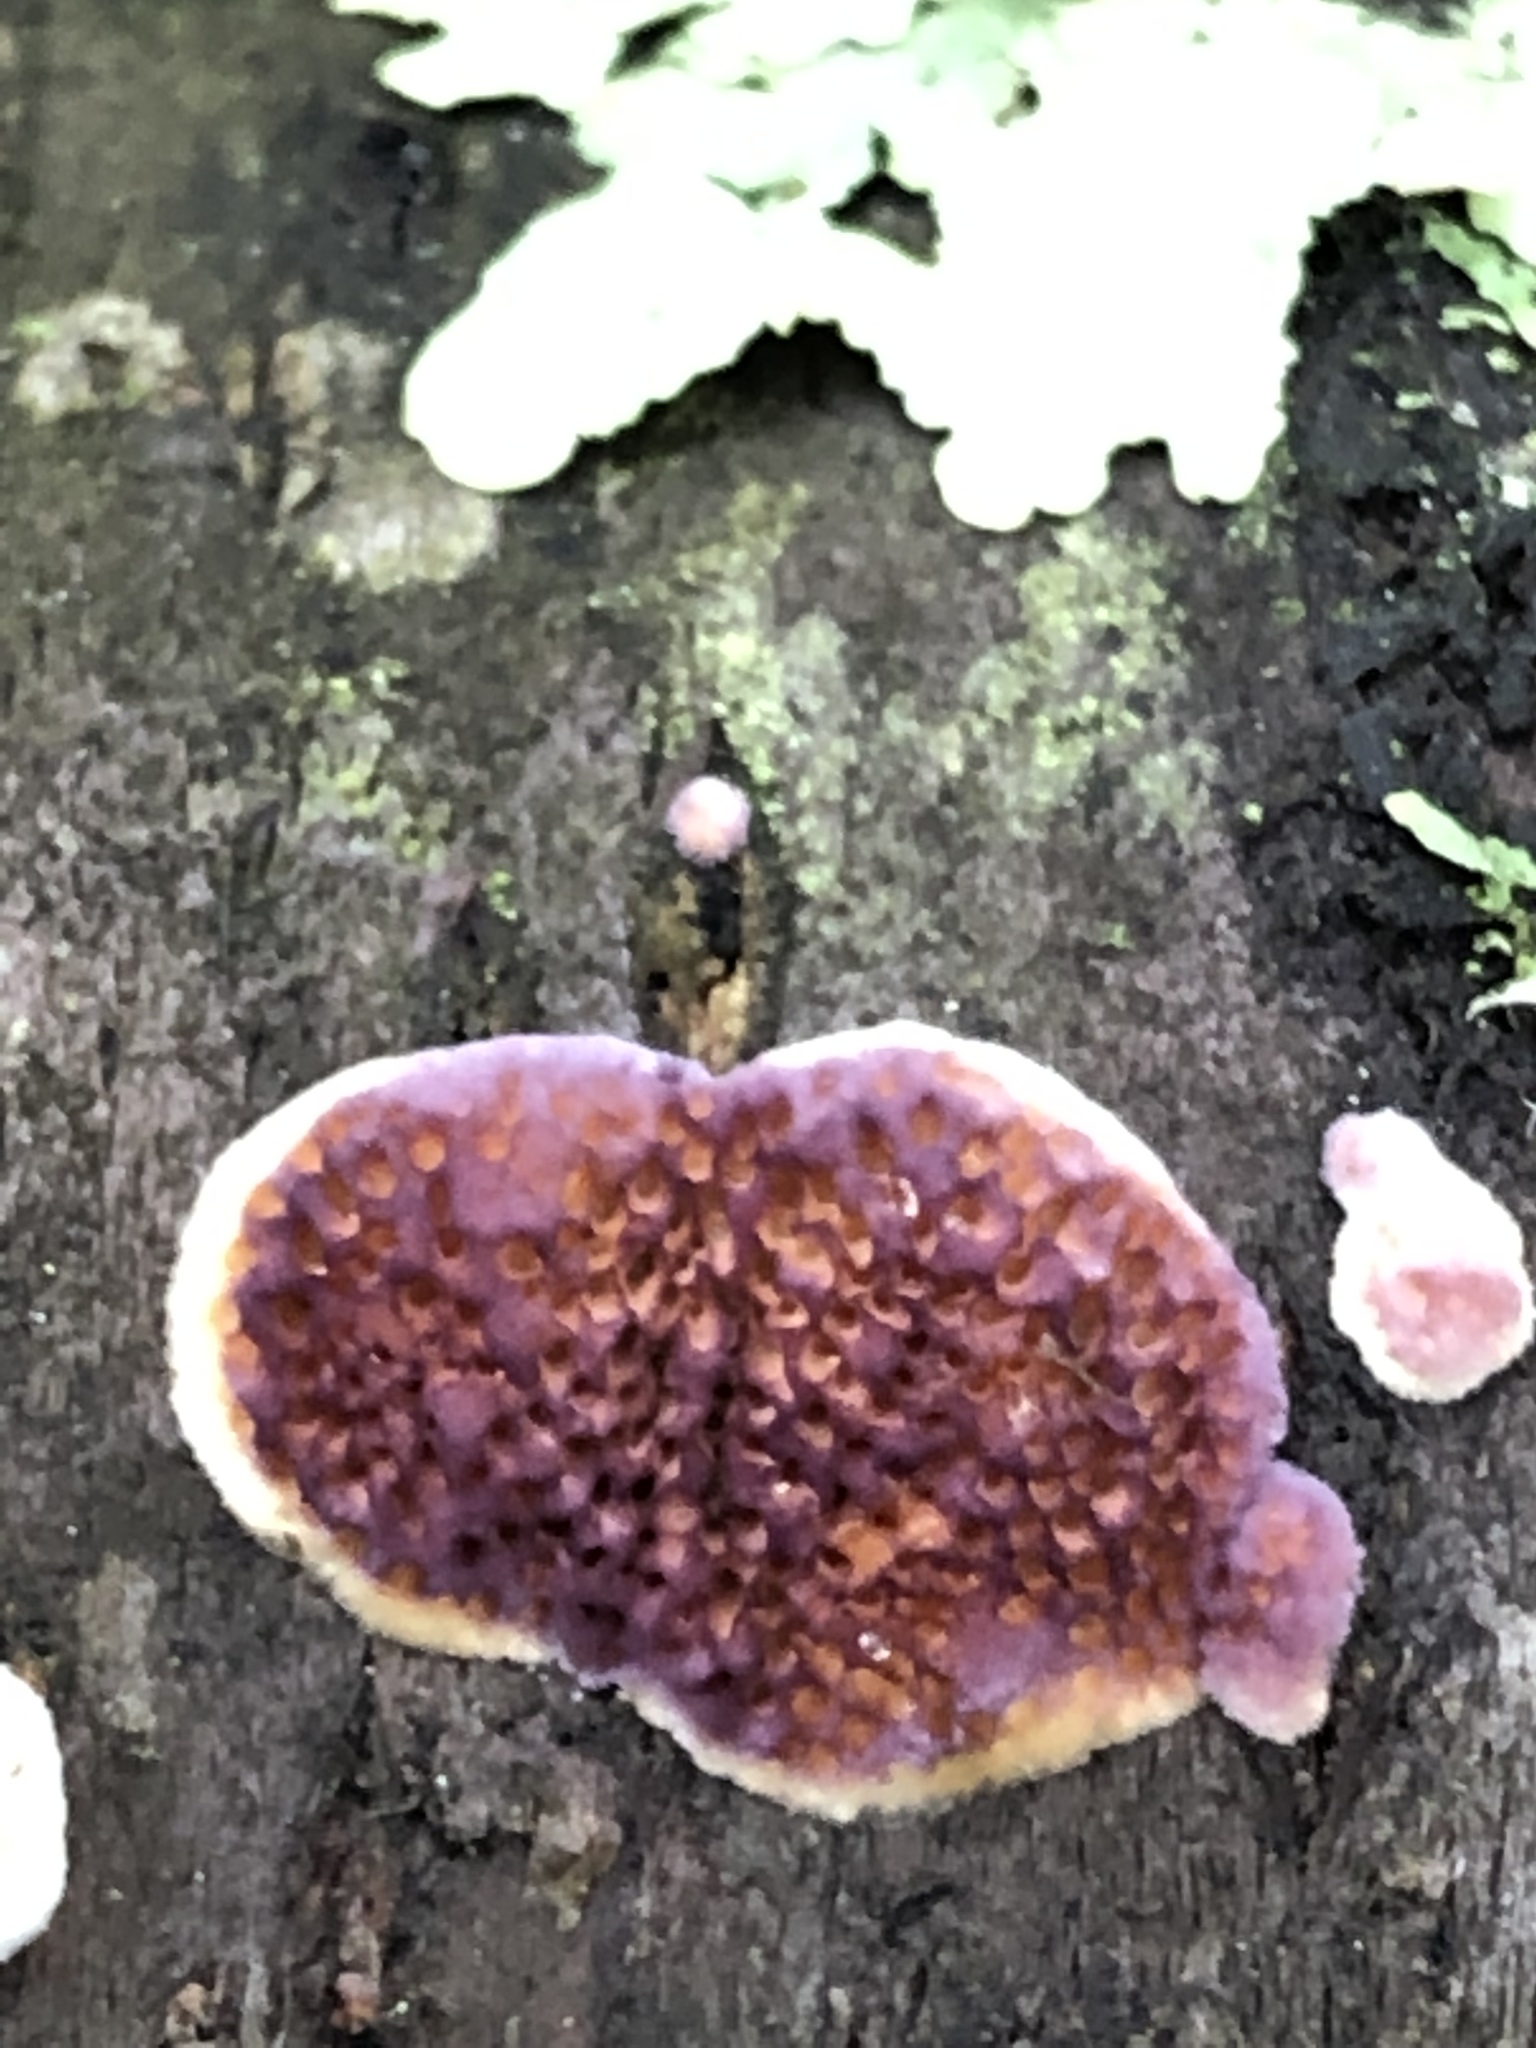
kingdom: Fungi
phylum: Basidiomycota
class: Agaricomycetes
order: Hymenochaetales
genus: Trichaptum
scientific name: Trichaptum biforme
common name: Violet-toothed polypore
